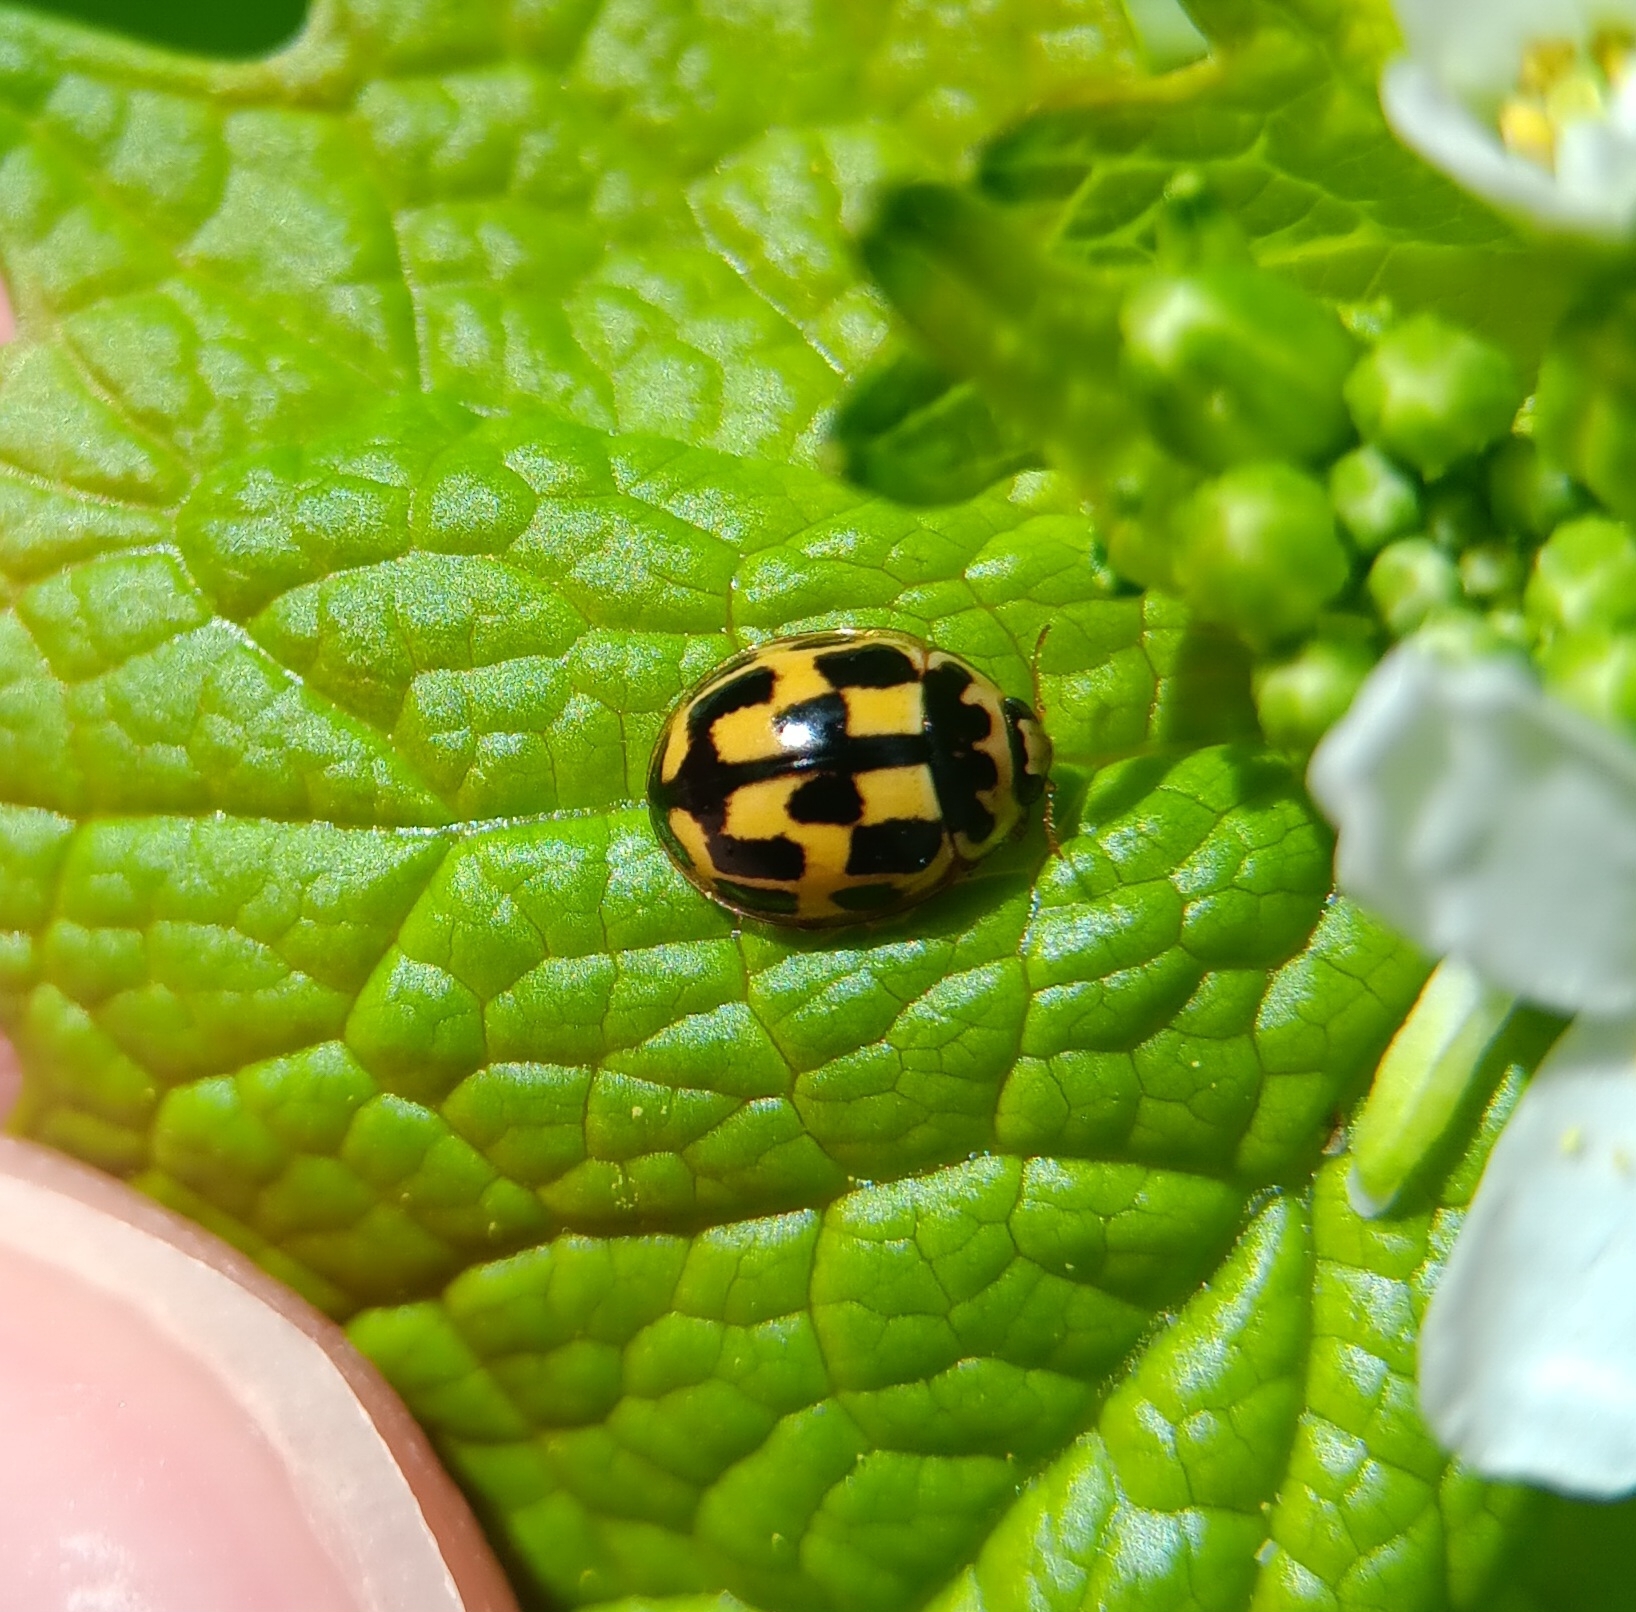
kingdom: Animalia
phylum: Arthropoda
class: Insecta
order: Coleoptera
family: Coccinellidae
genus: Propylaea
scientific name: Propylaea quatuordecimpunctata
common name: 14-spotted ladybird beetle
